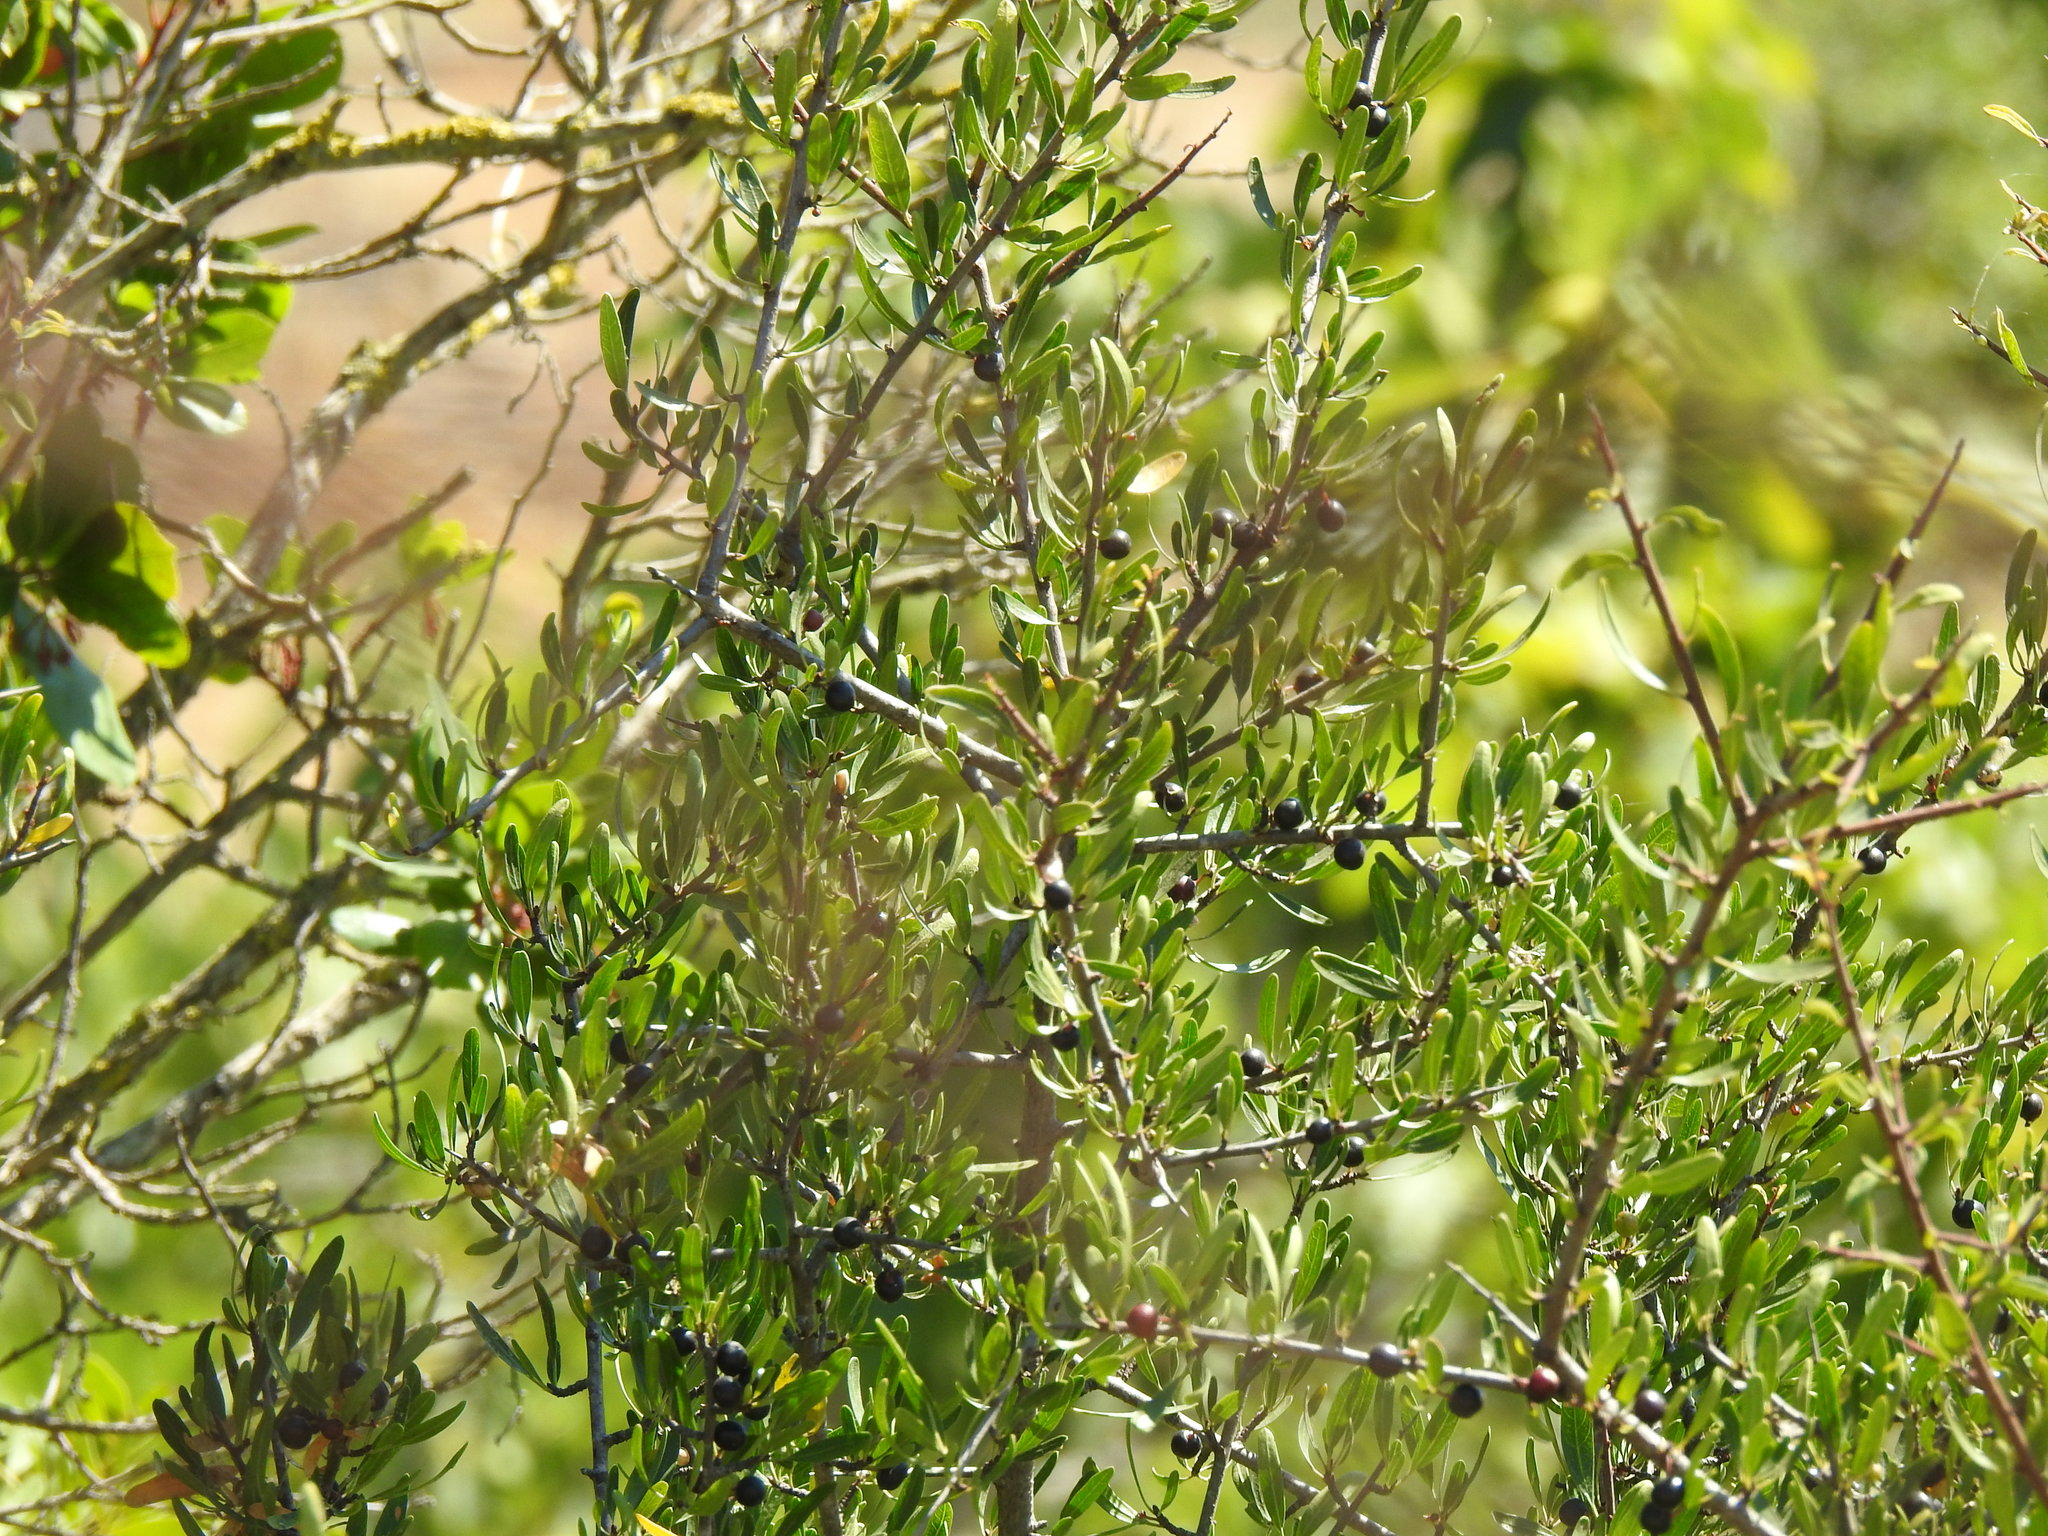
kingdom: Plantae
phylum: Tracheophyta
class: Magnoliopsida
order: Rosales
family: Rhamnaceae
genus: Rhamnus
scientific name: Rhamnus oleoides
